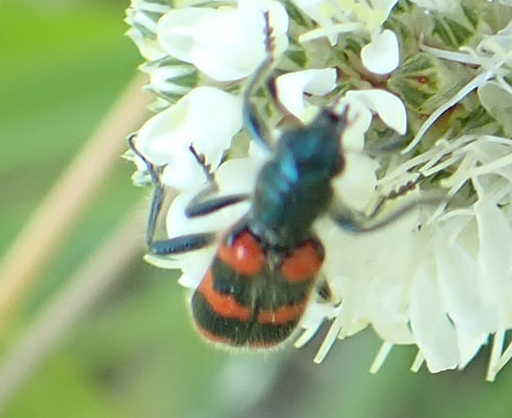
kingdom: Animalia
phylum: Arthropoda
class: Insecta
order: Coleoptera
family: Cleridae
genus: Trichodes
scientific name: Trichodes nutalli
